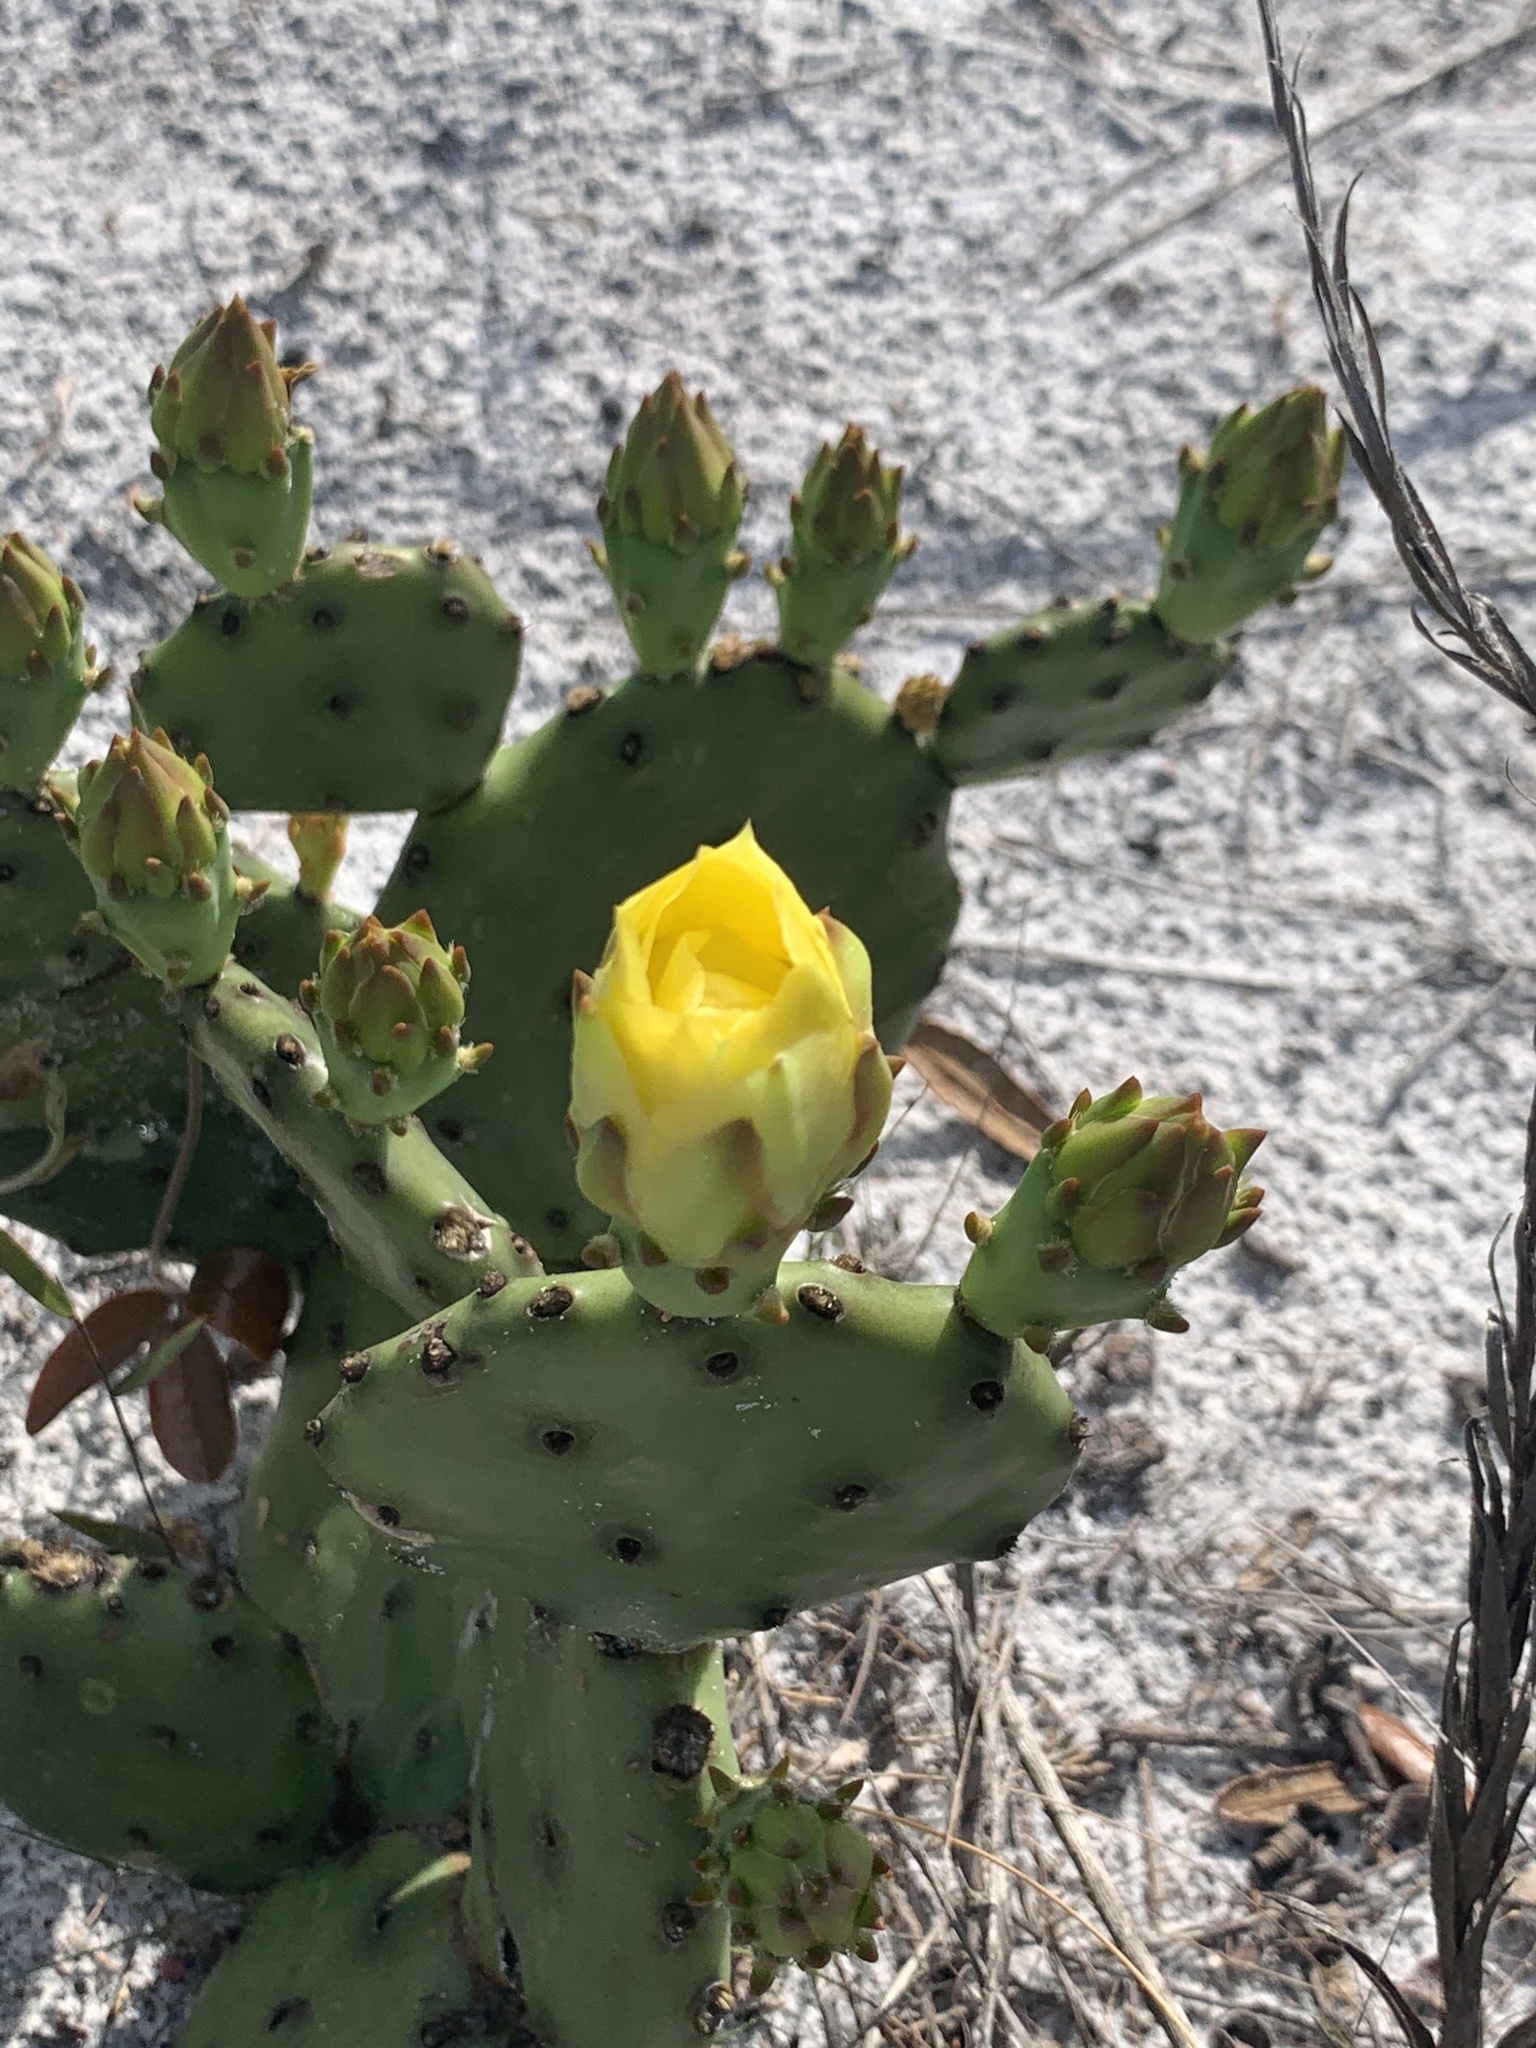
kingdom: Plantae
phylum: Tracheophyta
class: Magnoliopsida
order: Caryophyllales
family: Cactaceae
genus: Opuntia
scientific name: Opuntia austrina
